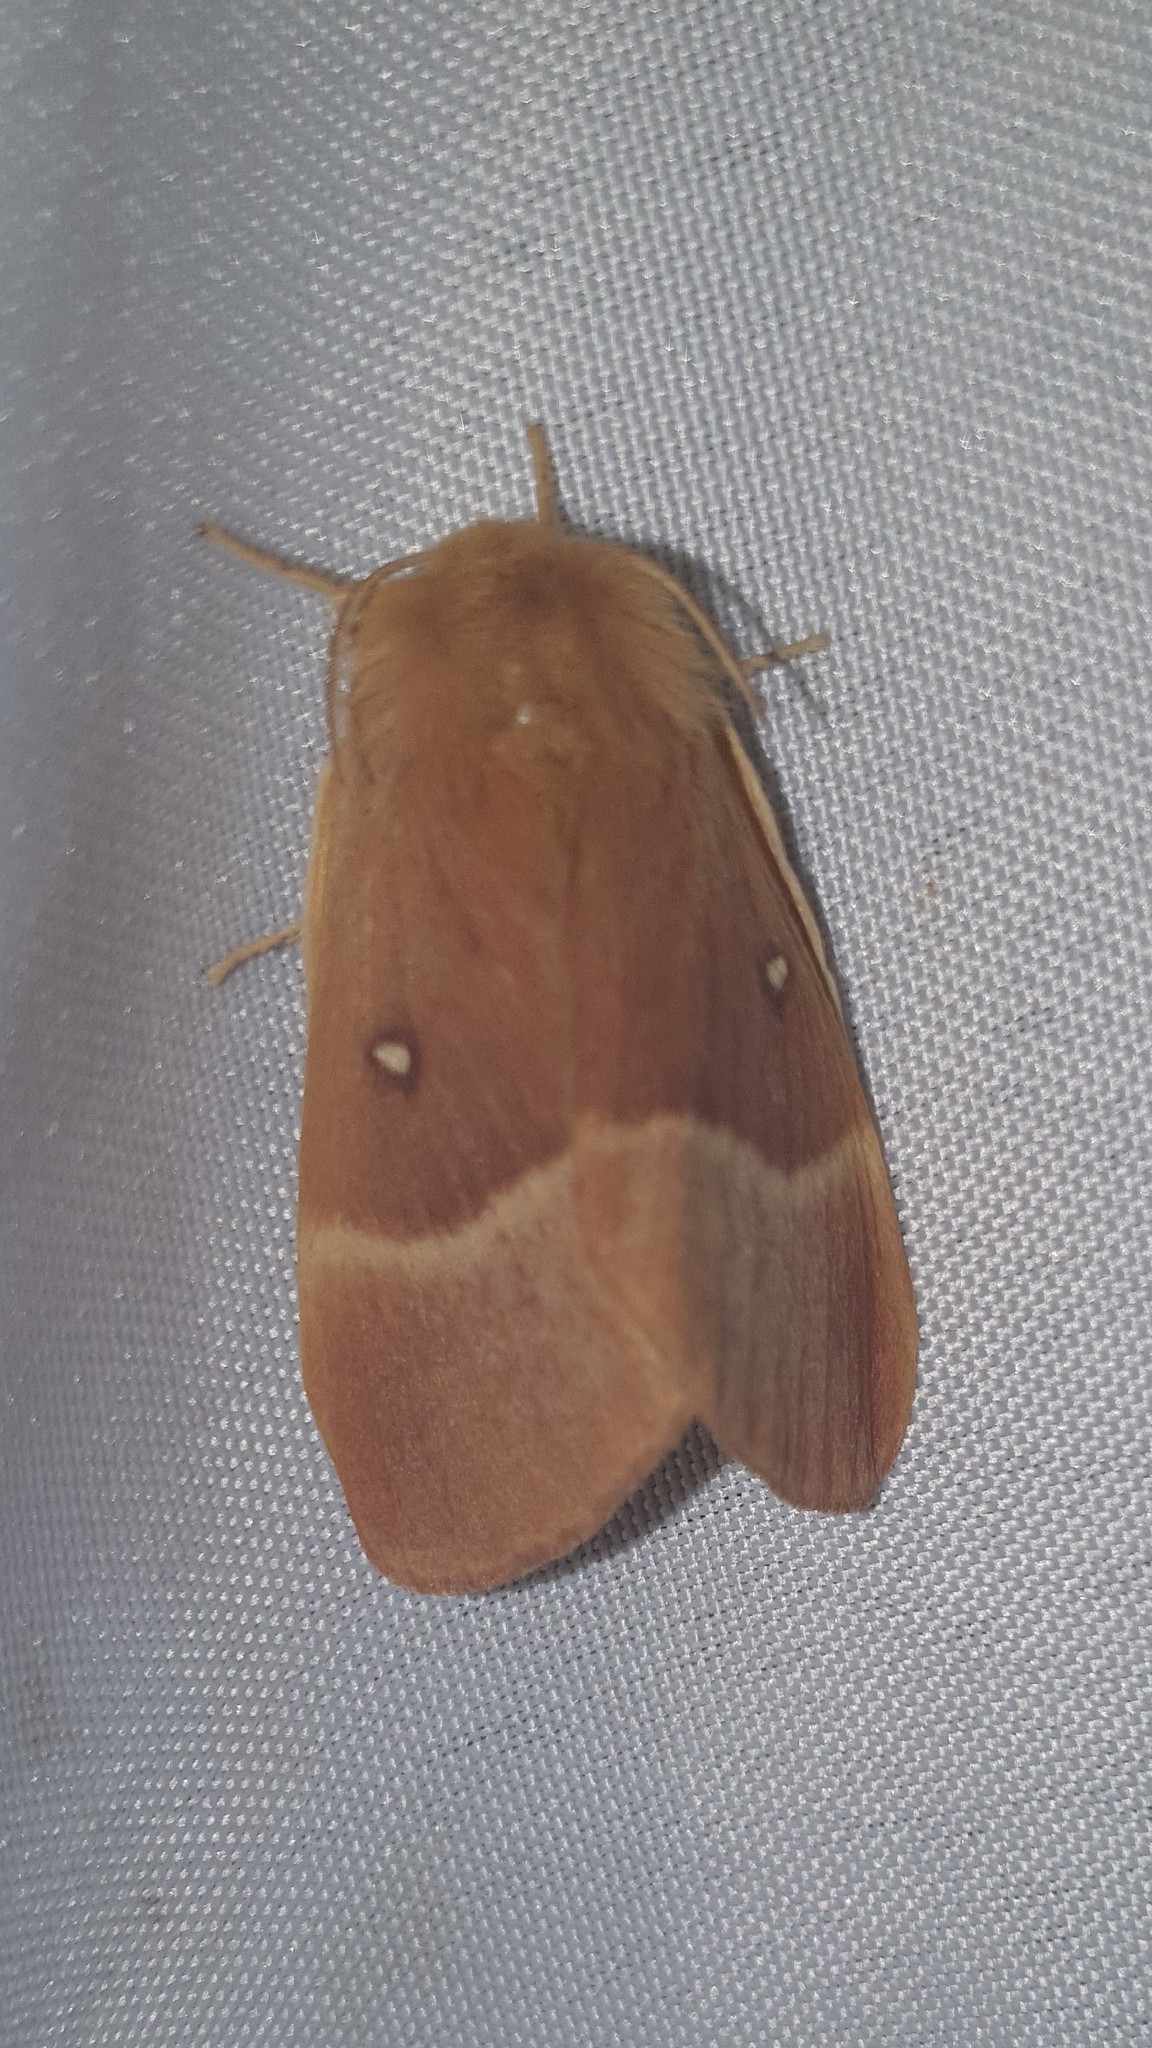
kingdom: Animalia
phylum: Arthropoda
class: Insecta
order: Lepidoptera
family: Lasiocampidae
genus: Lasiocampa
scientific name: Lasiocampa quercus
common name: Oak eggar
